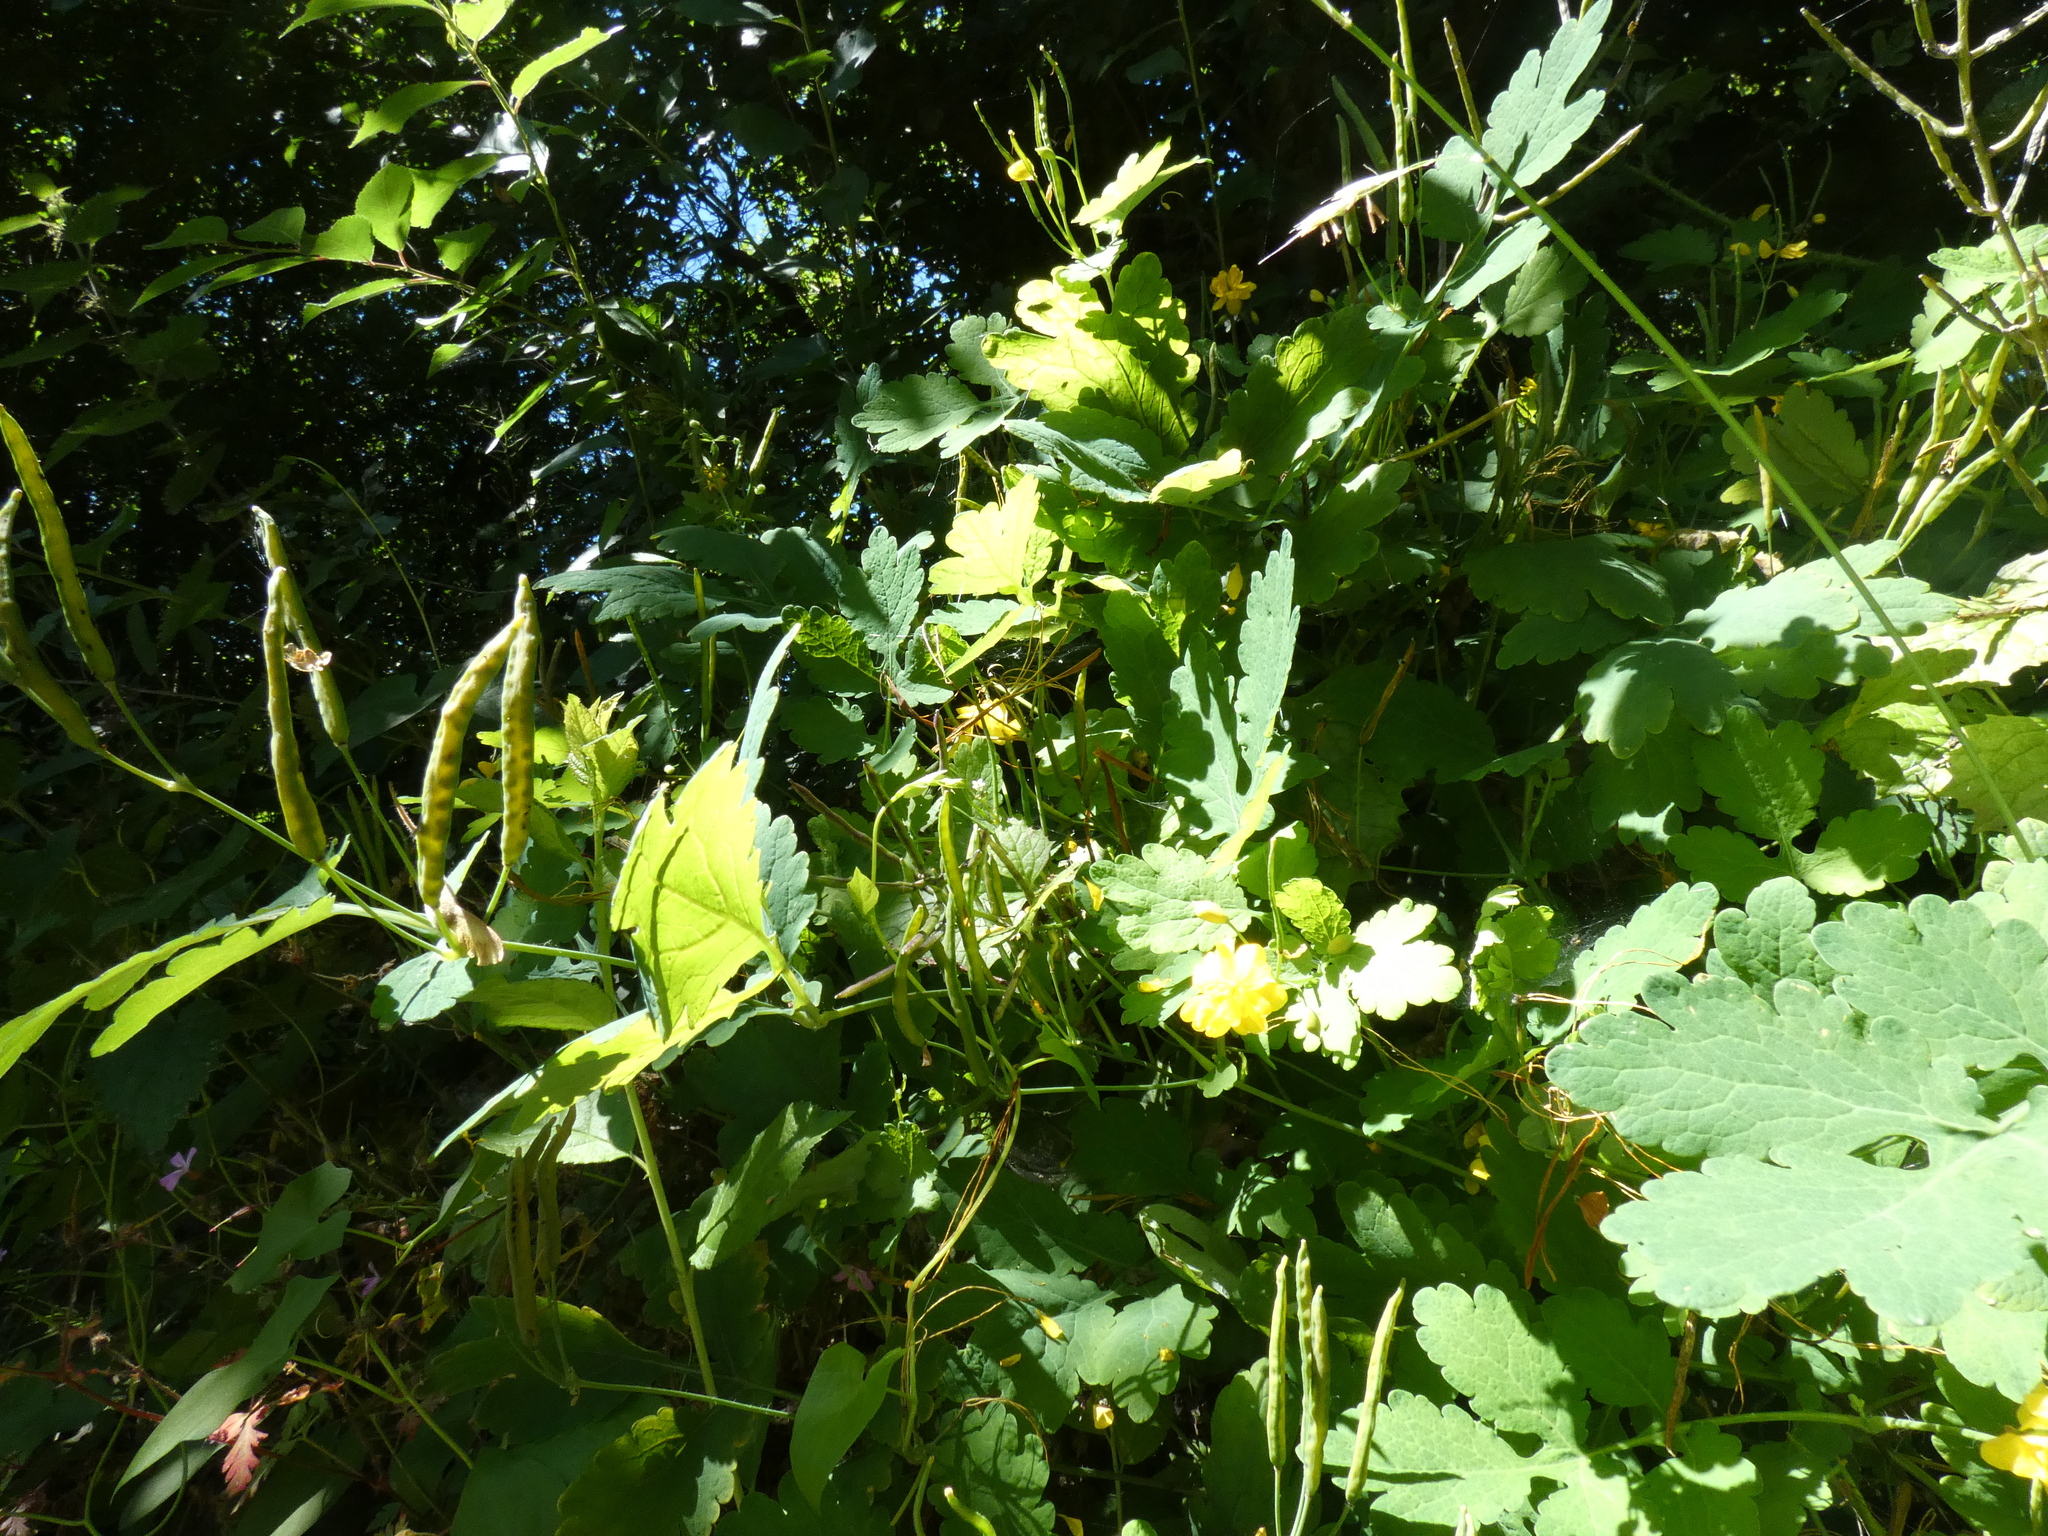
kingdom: Plantae
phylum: Tracheophyta
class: Magnoliopsida
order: Ranunculales
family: Papaveraceae
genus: Chelidonium
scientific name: Chelidonium majus
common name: Greater celandine
